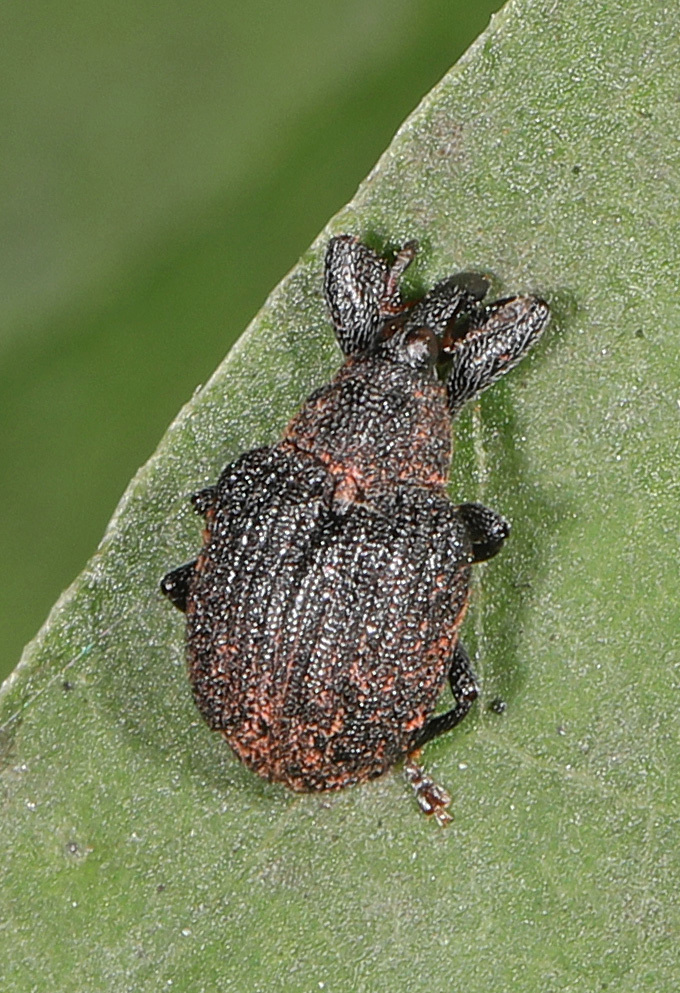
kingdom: Animalia
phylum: Arthropoda
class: Insecta
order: Coleoptera
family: Curculionidae
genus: Odontopus
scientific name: Odontopus calceatus
